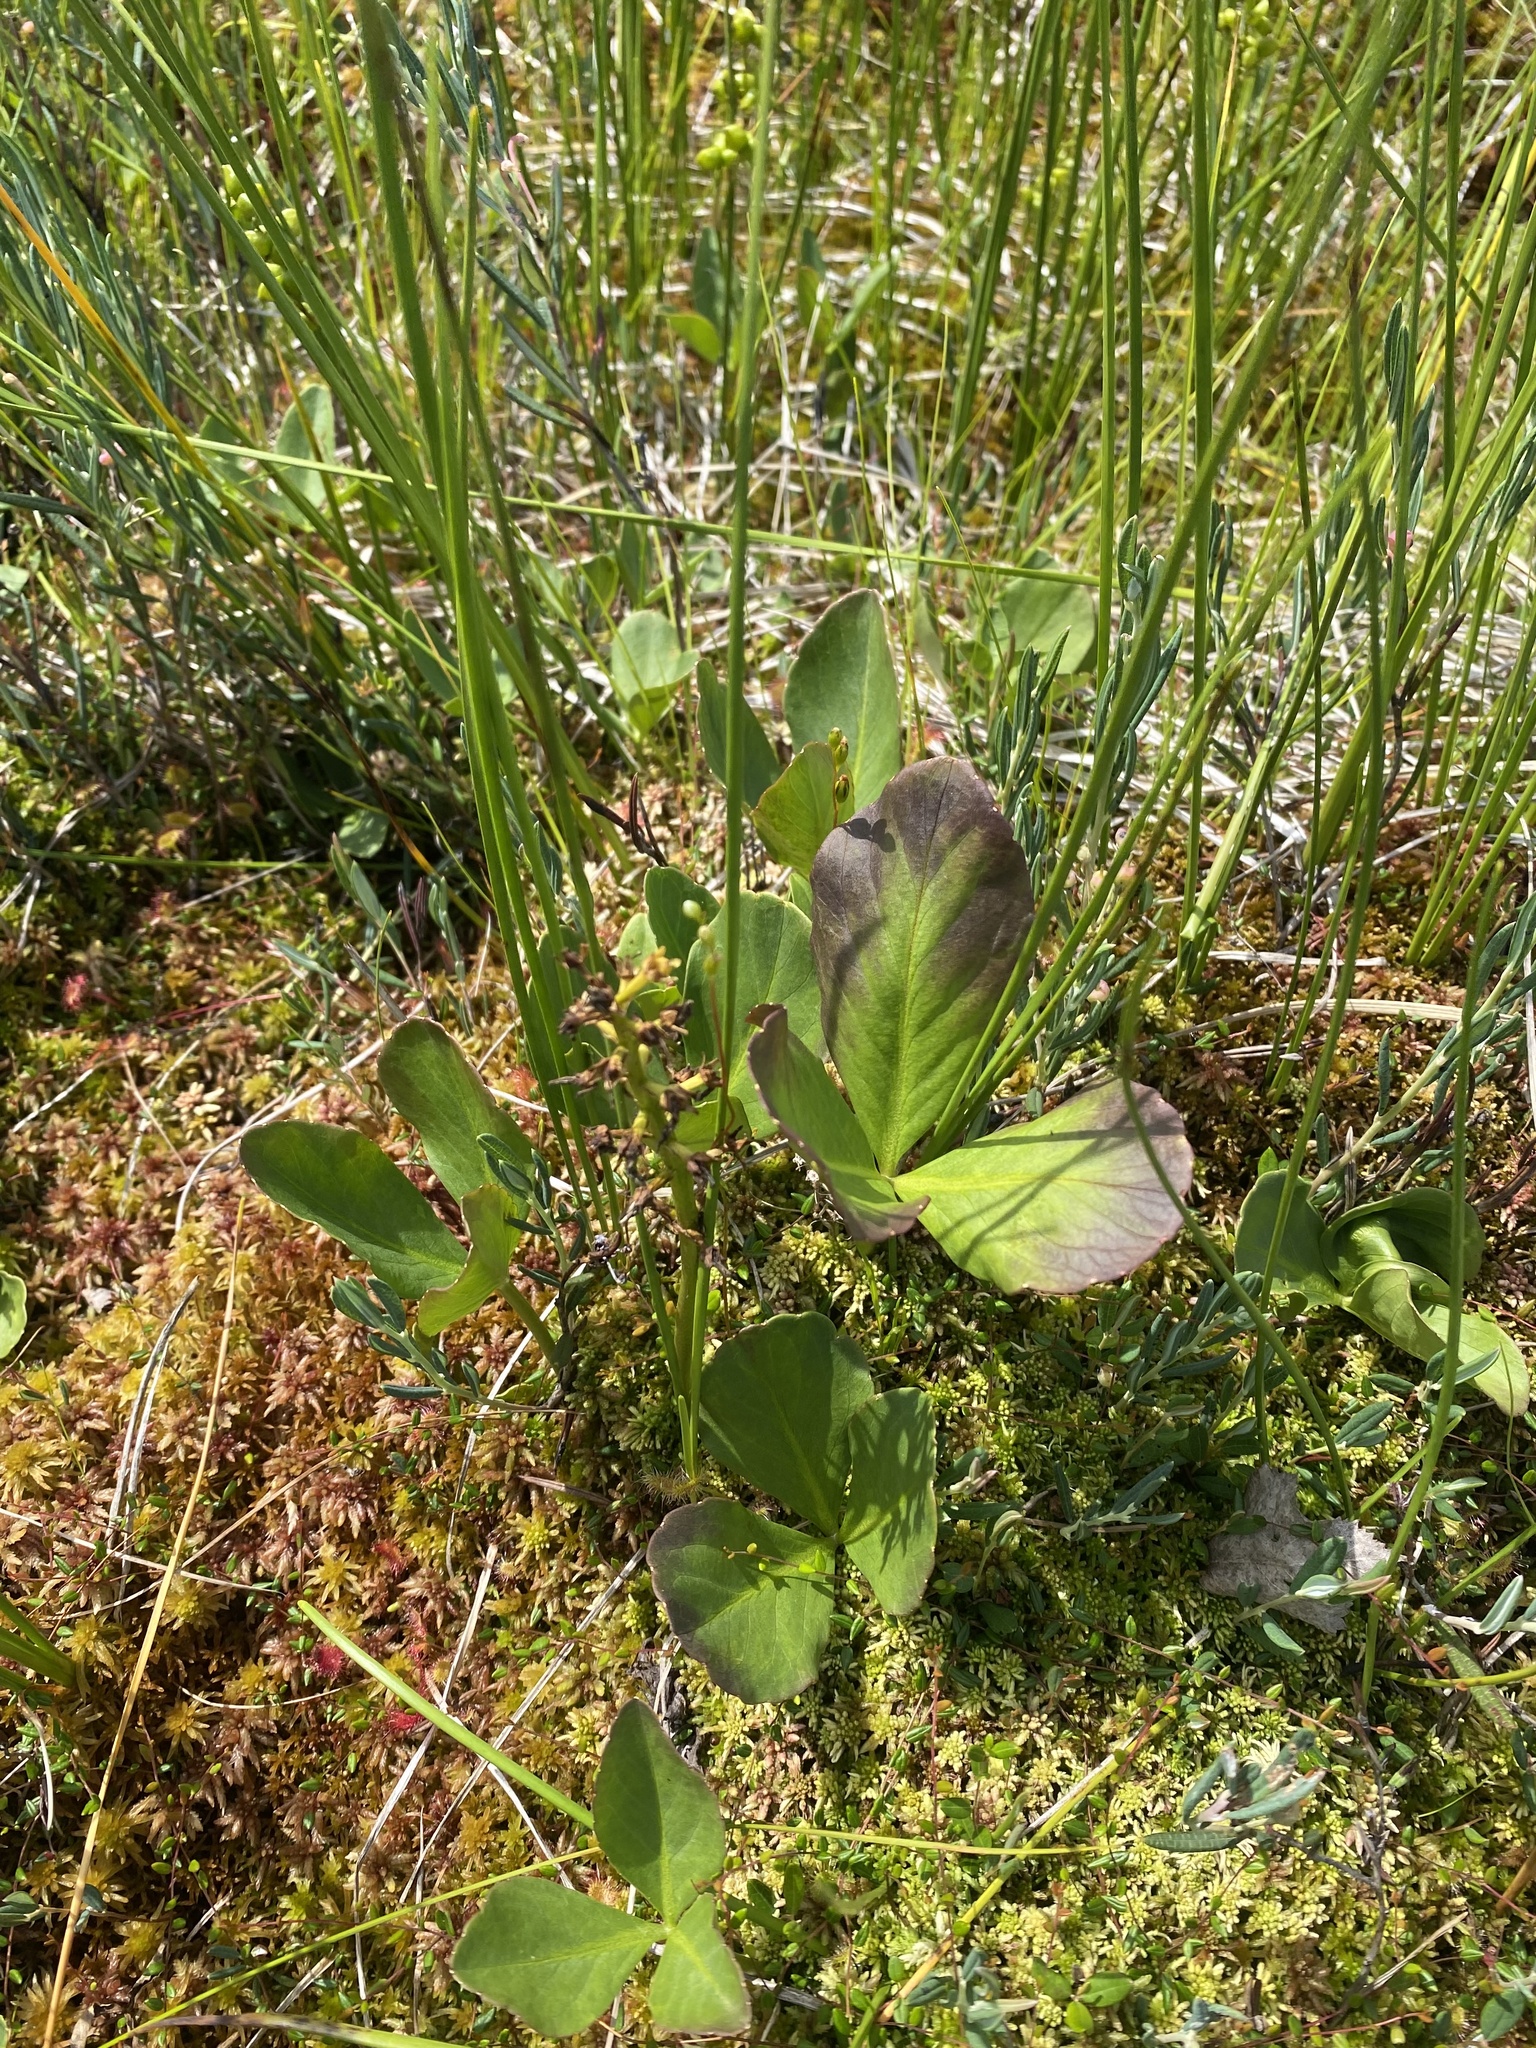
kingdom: Plantae
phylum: Tracheophyta
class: Magnoliopsida
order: Asterales
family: Menyanthaceae
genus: Menyanthes
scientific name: Menyanthes trifoliata
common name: Bogbean
